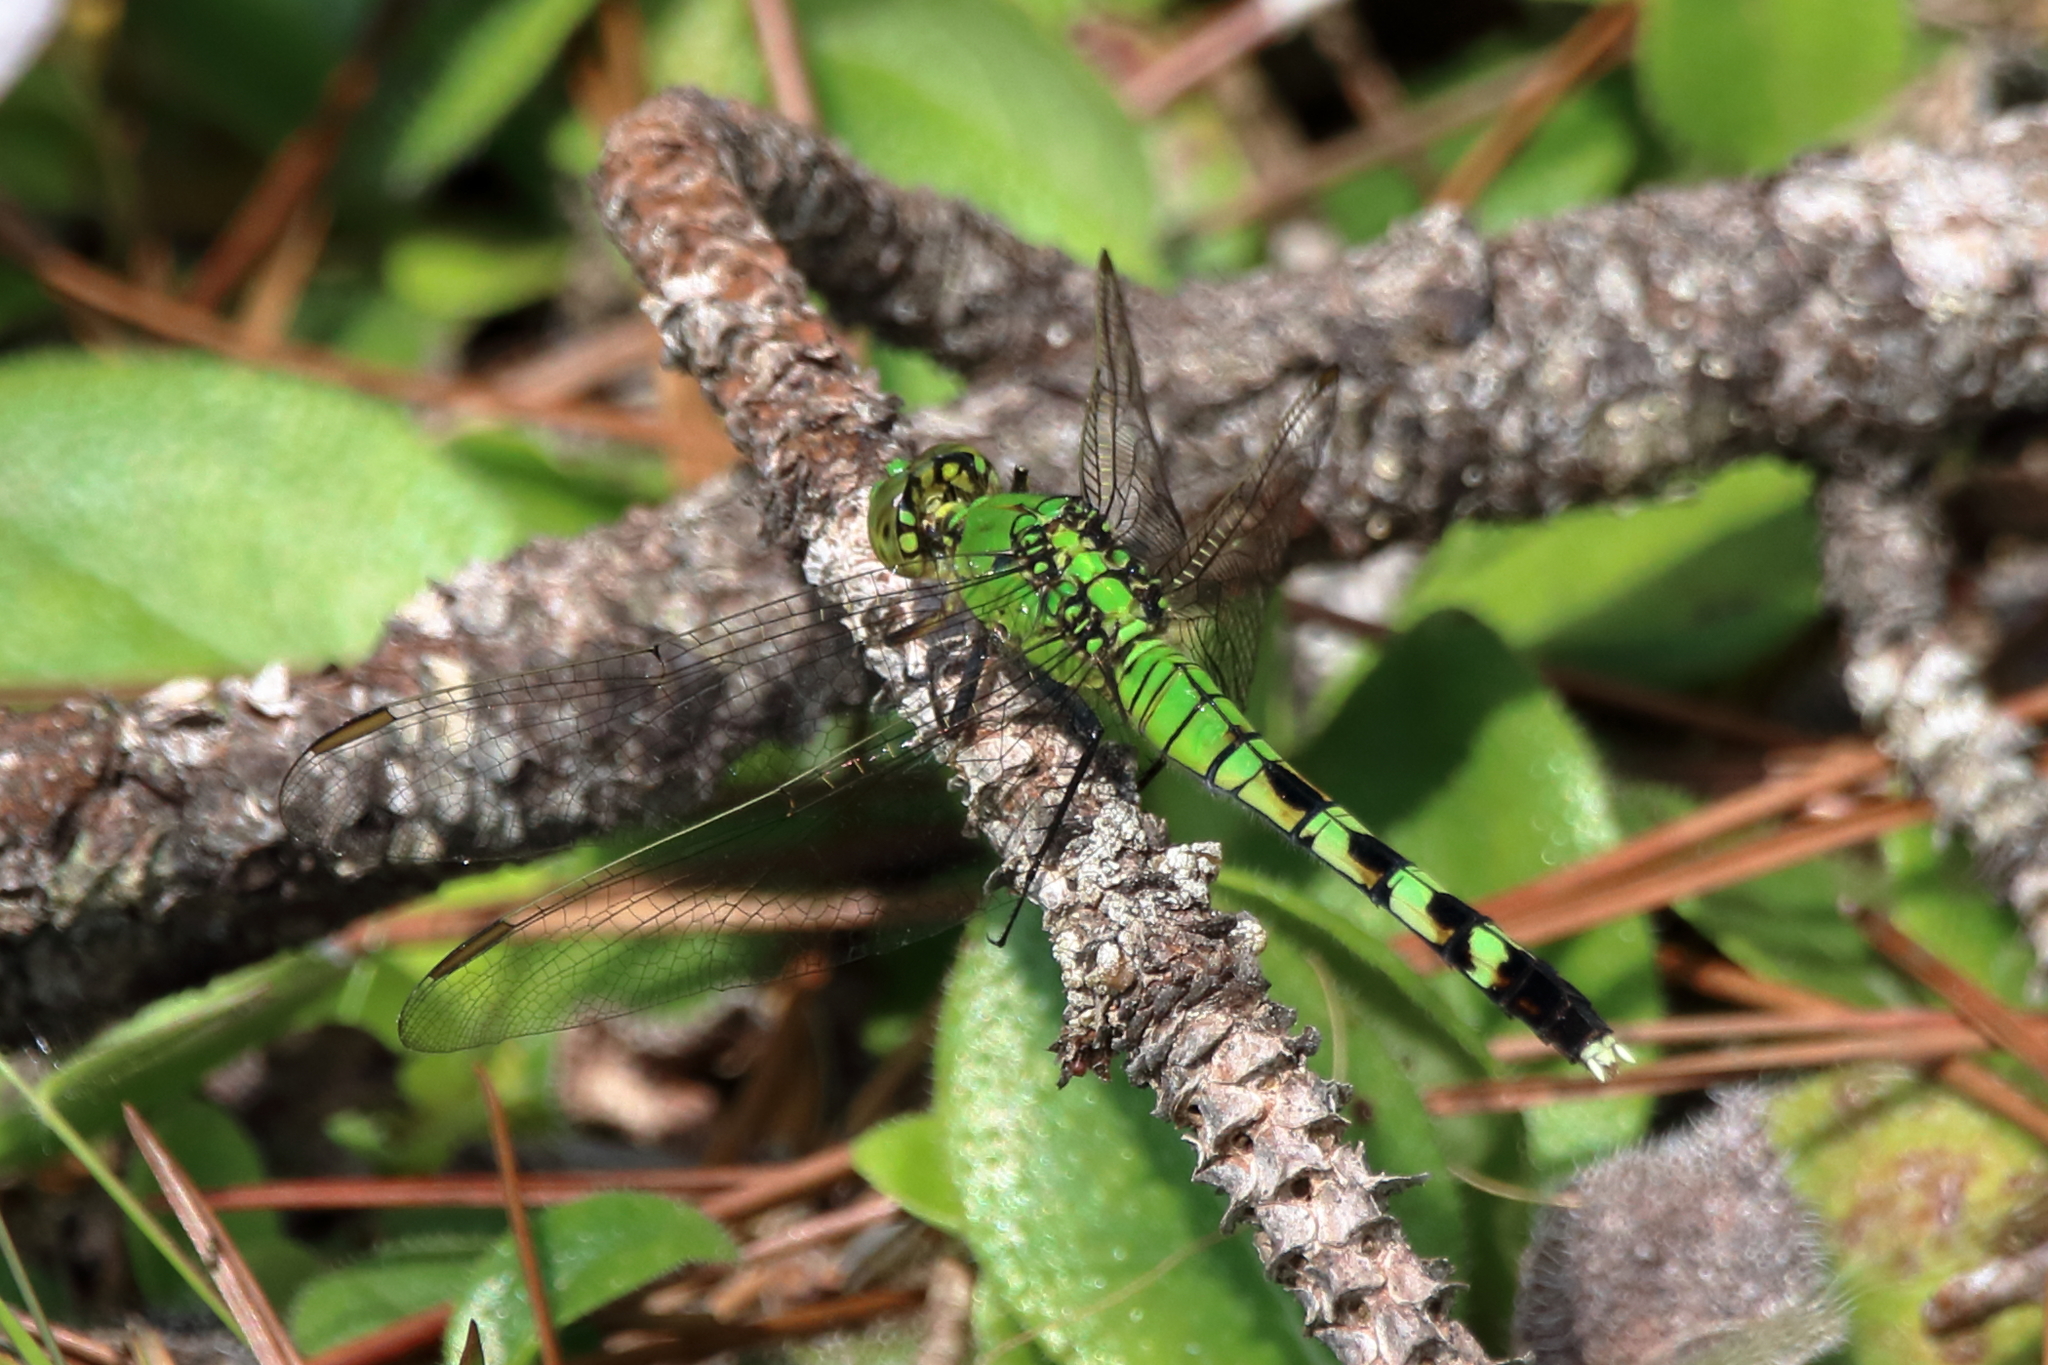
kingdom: Animalia
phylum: Arthropoda
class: Insecta
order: Odonata
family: Libellulidae
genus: Erythemis
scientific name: Erythemis simplicicollis
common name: Eastern pondhawk
